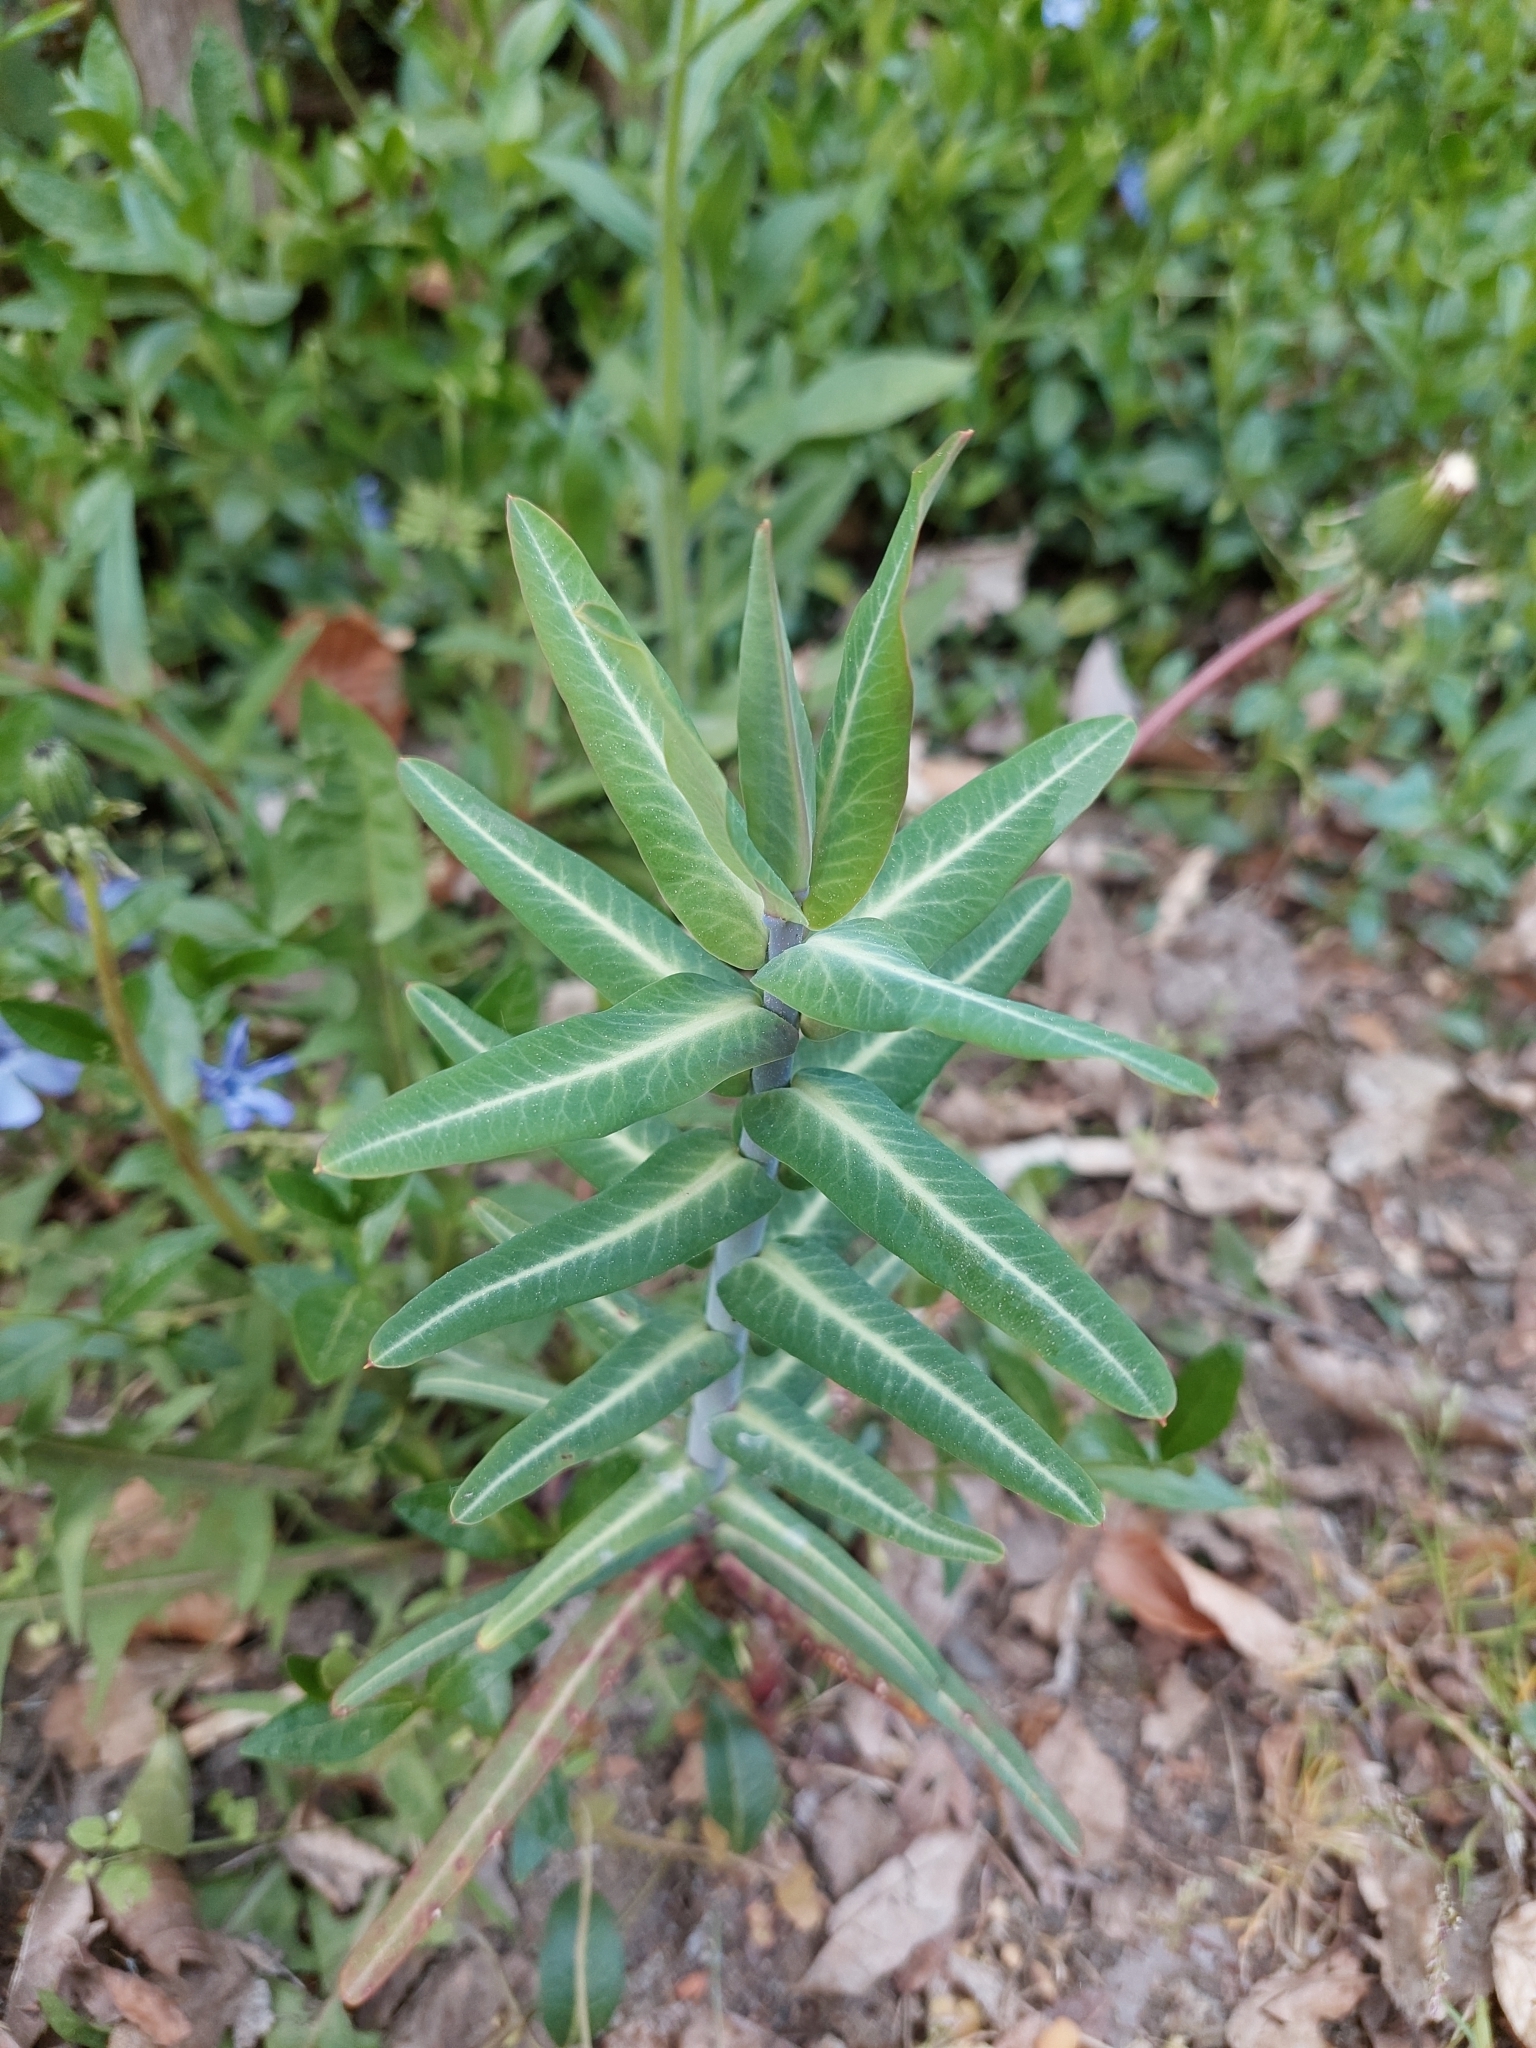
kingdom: Plantae
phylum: Tracheophyta
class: Magnoliopsida
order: Malpighiales
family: Euphorbiaceae
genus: Euphorbia
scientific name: Euphorbia lathyris
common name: Caper spurge
